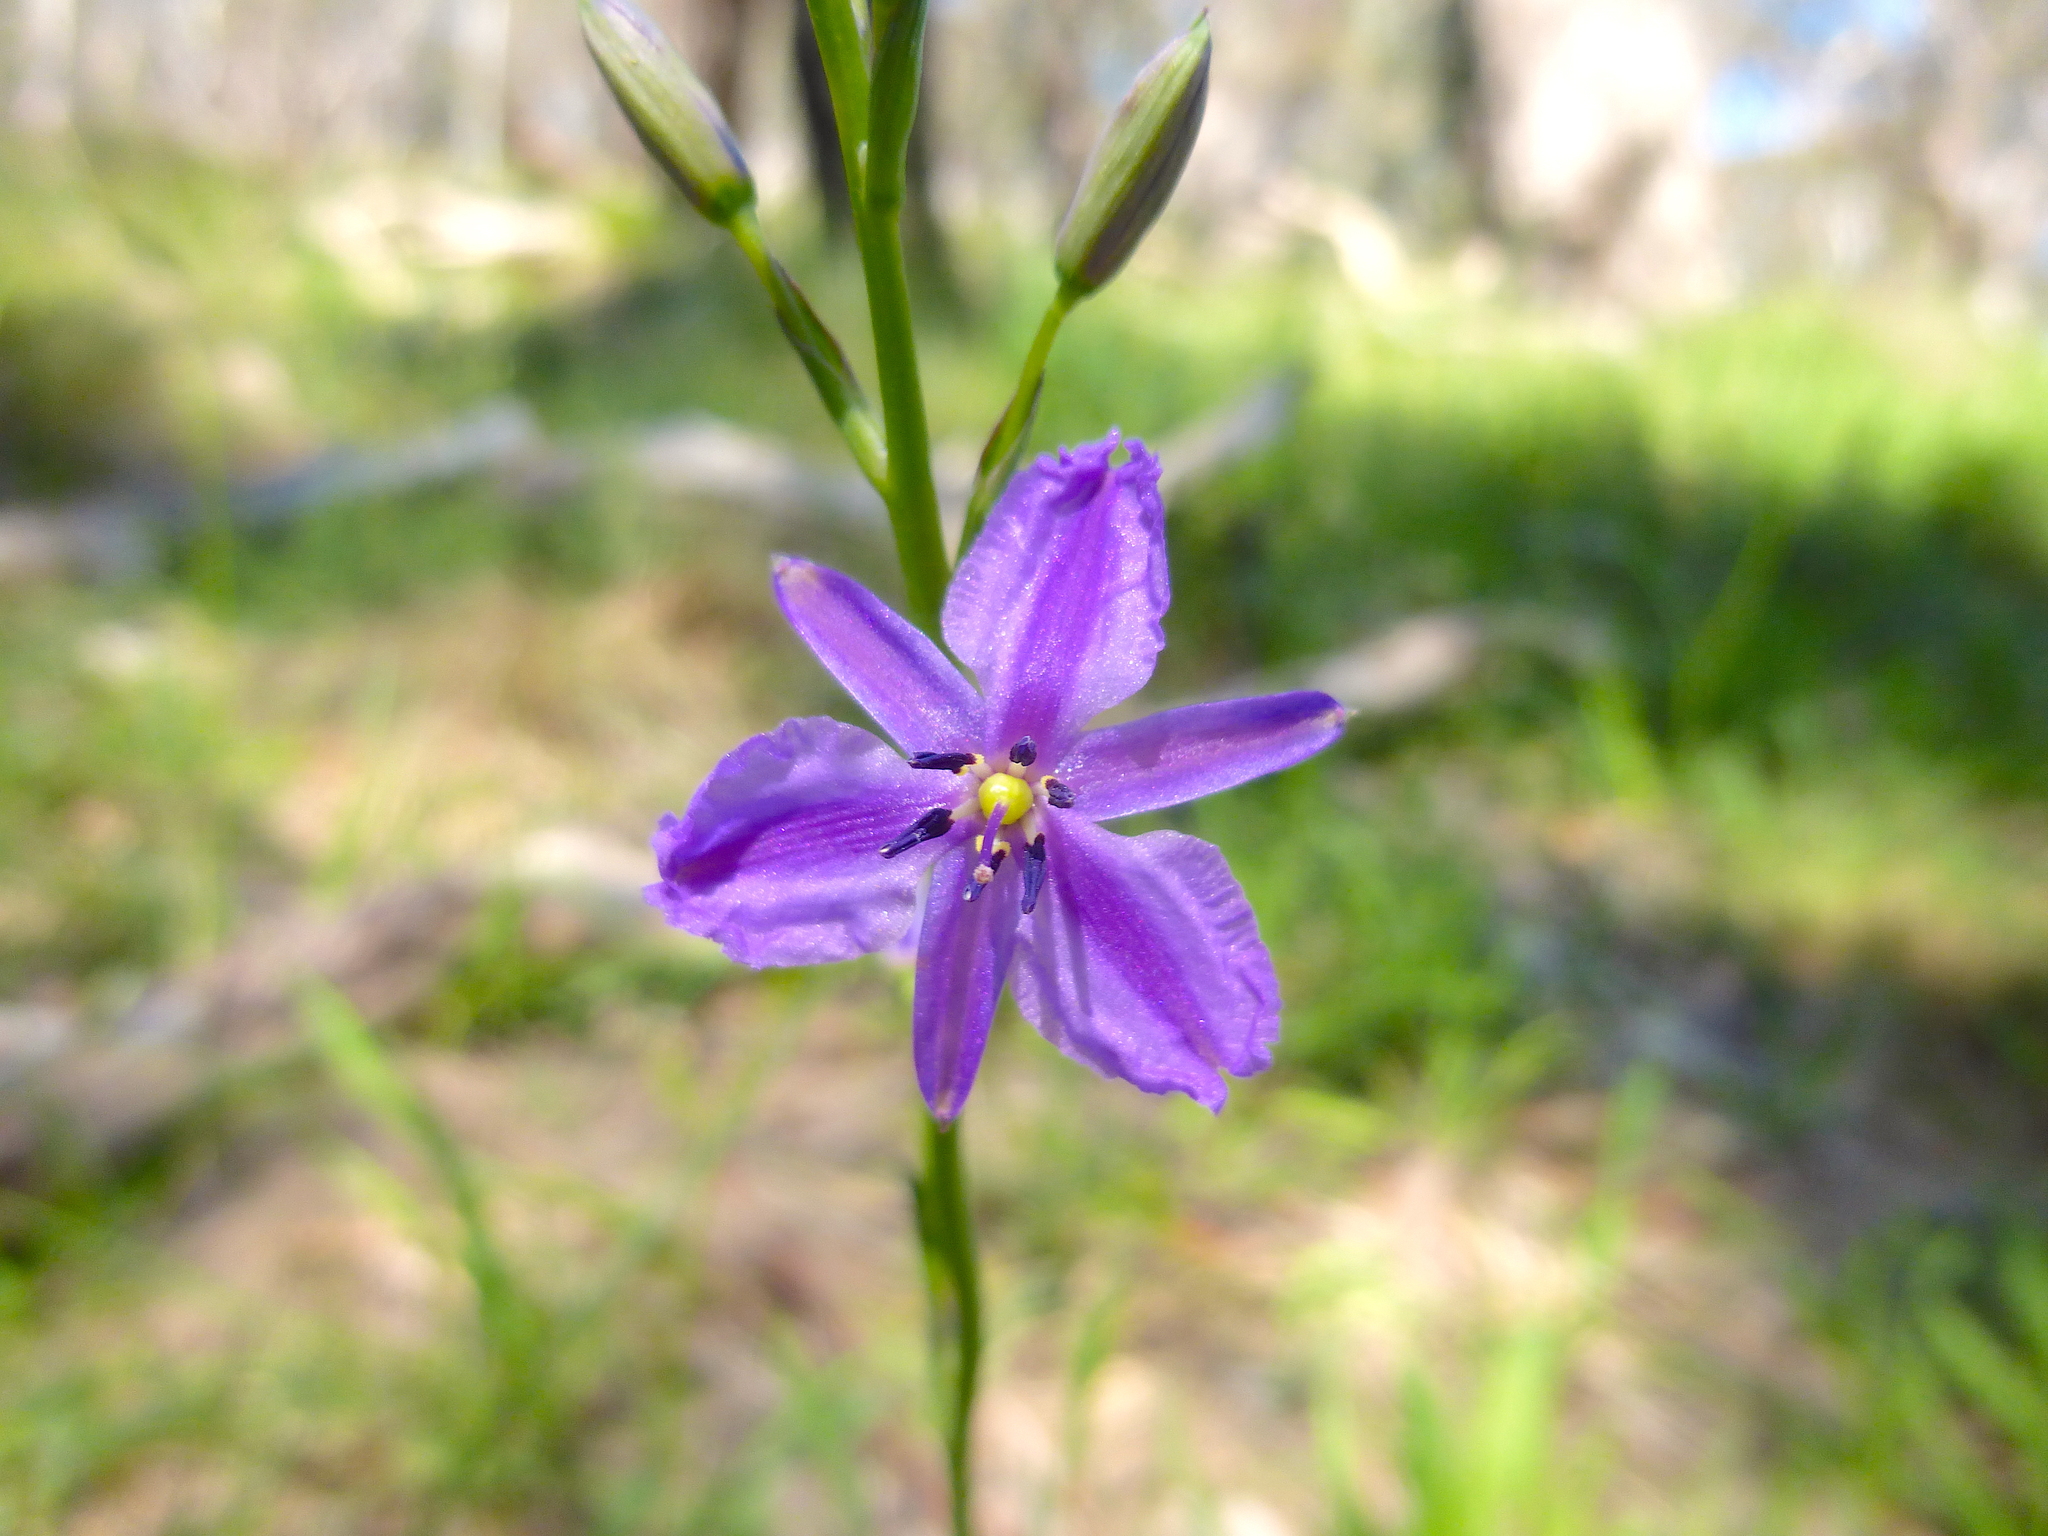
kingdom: Plantae
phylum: Tracheophyta
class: Liliopsida
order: Asparagales
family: Asparagaceae
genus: Arthropodium
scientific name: Arthropodium strictum
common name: Chocolate-lily
